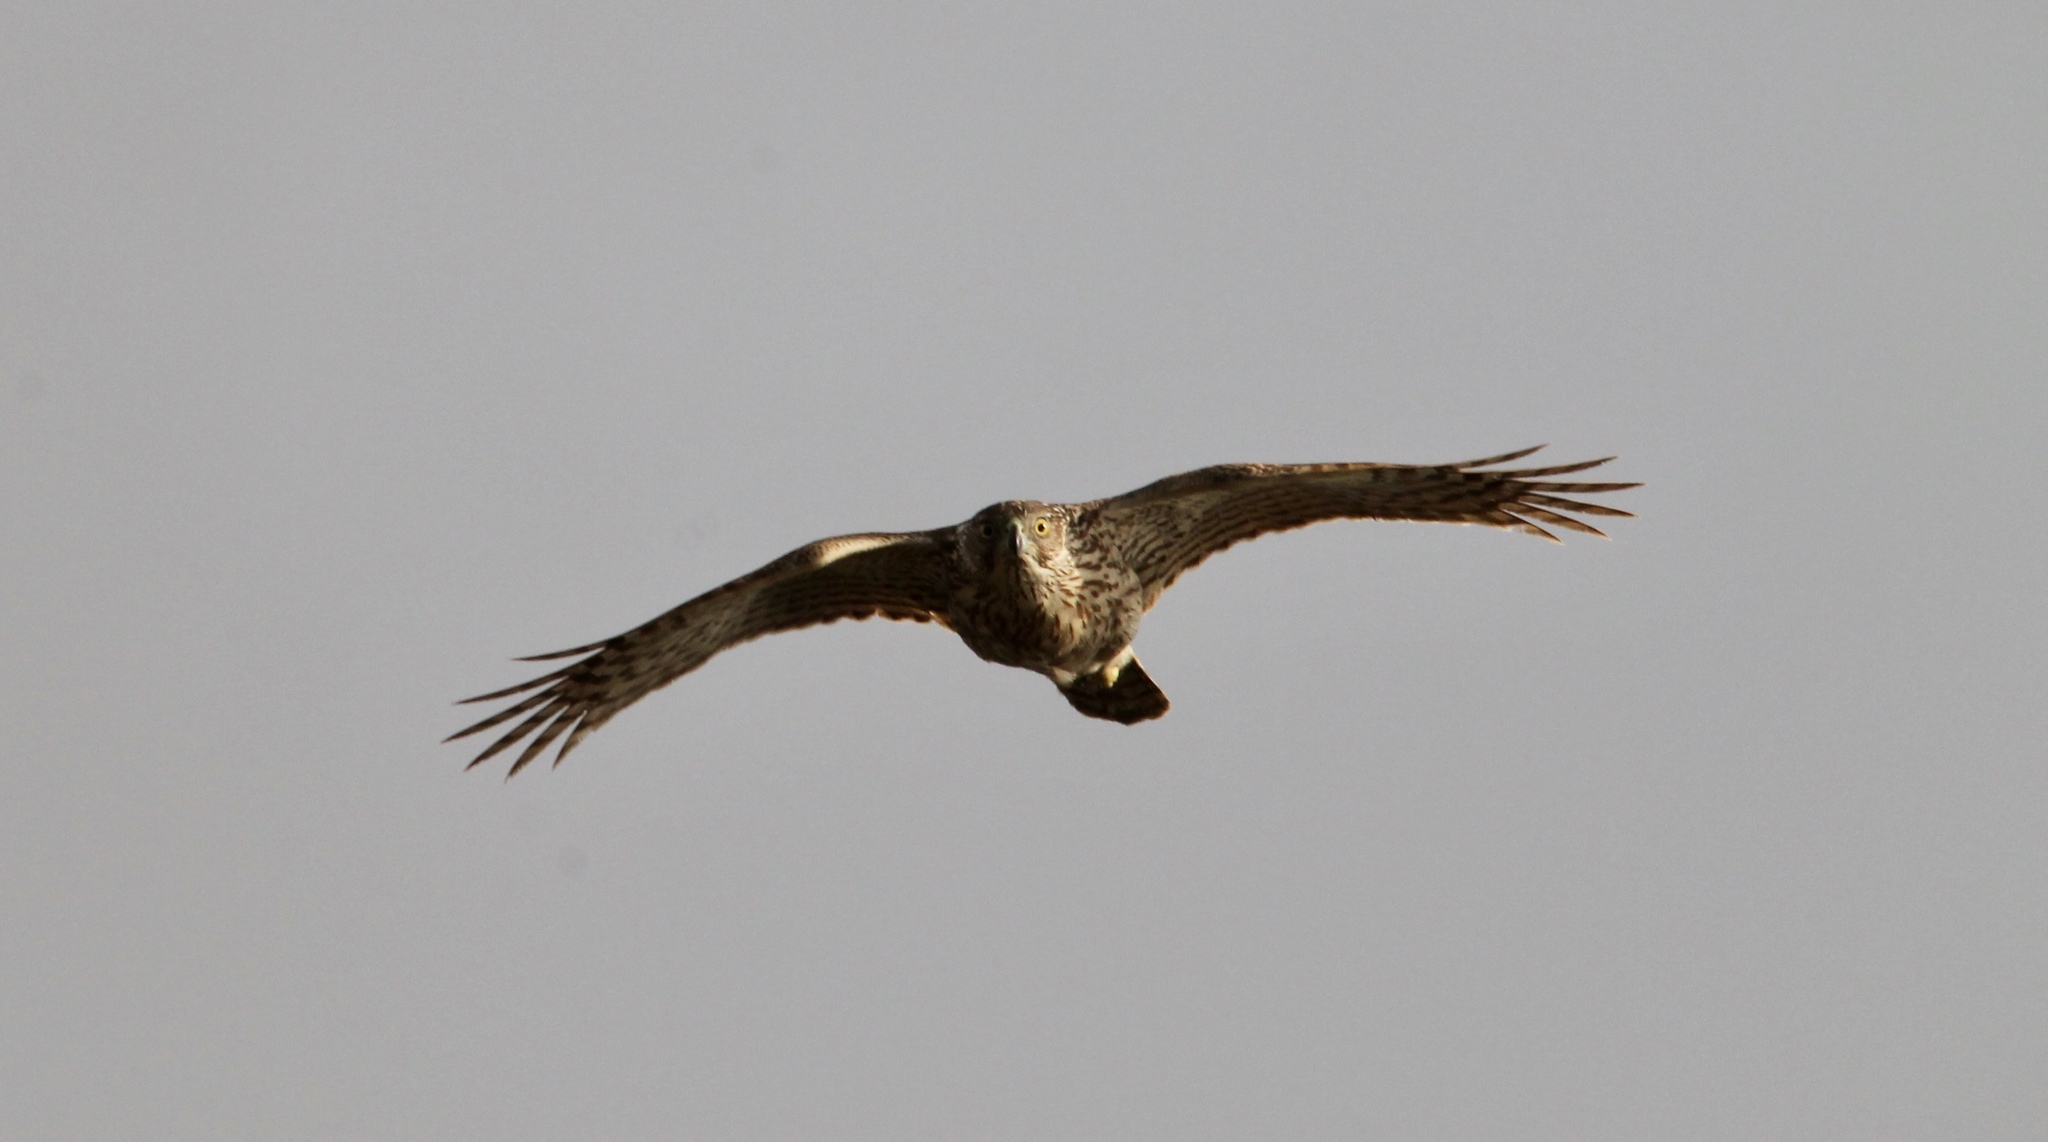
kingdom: Animalia
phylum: Chordata
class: Aves
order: Accipitriformes
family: Accipitridae
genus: Accipiter
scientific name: Accipiter cooperii
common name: Cooper's hawk
